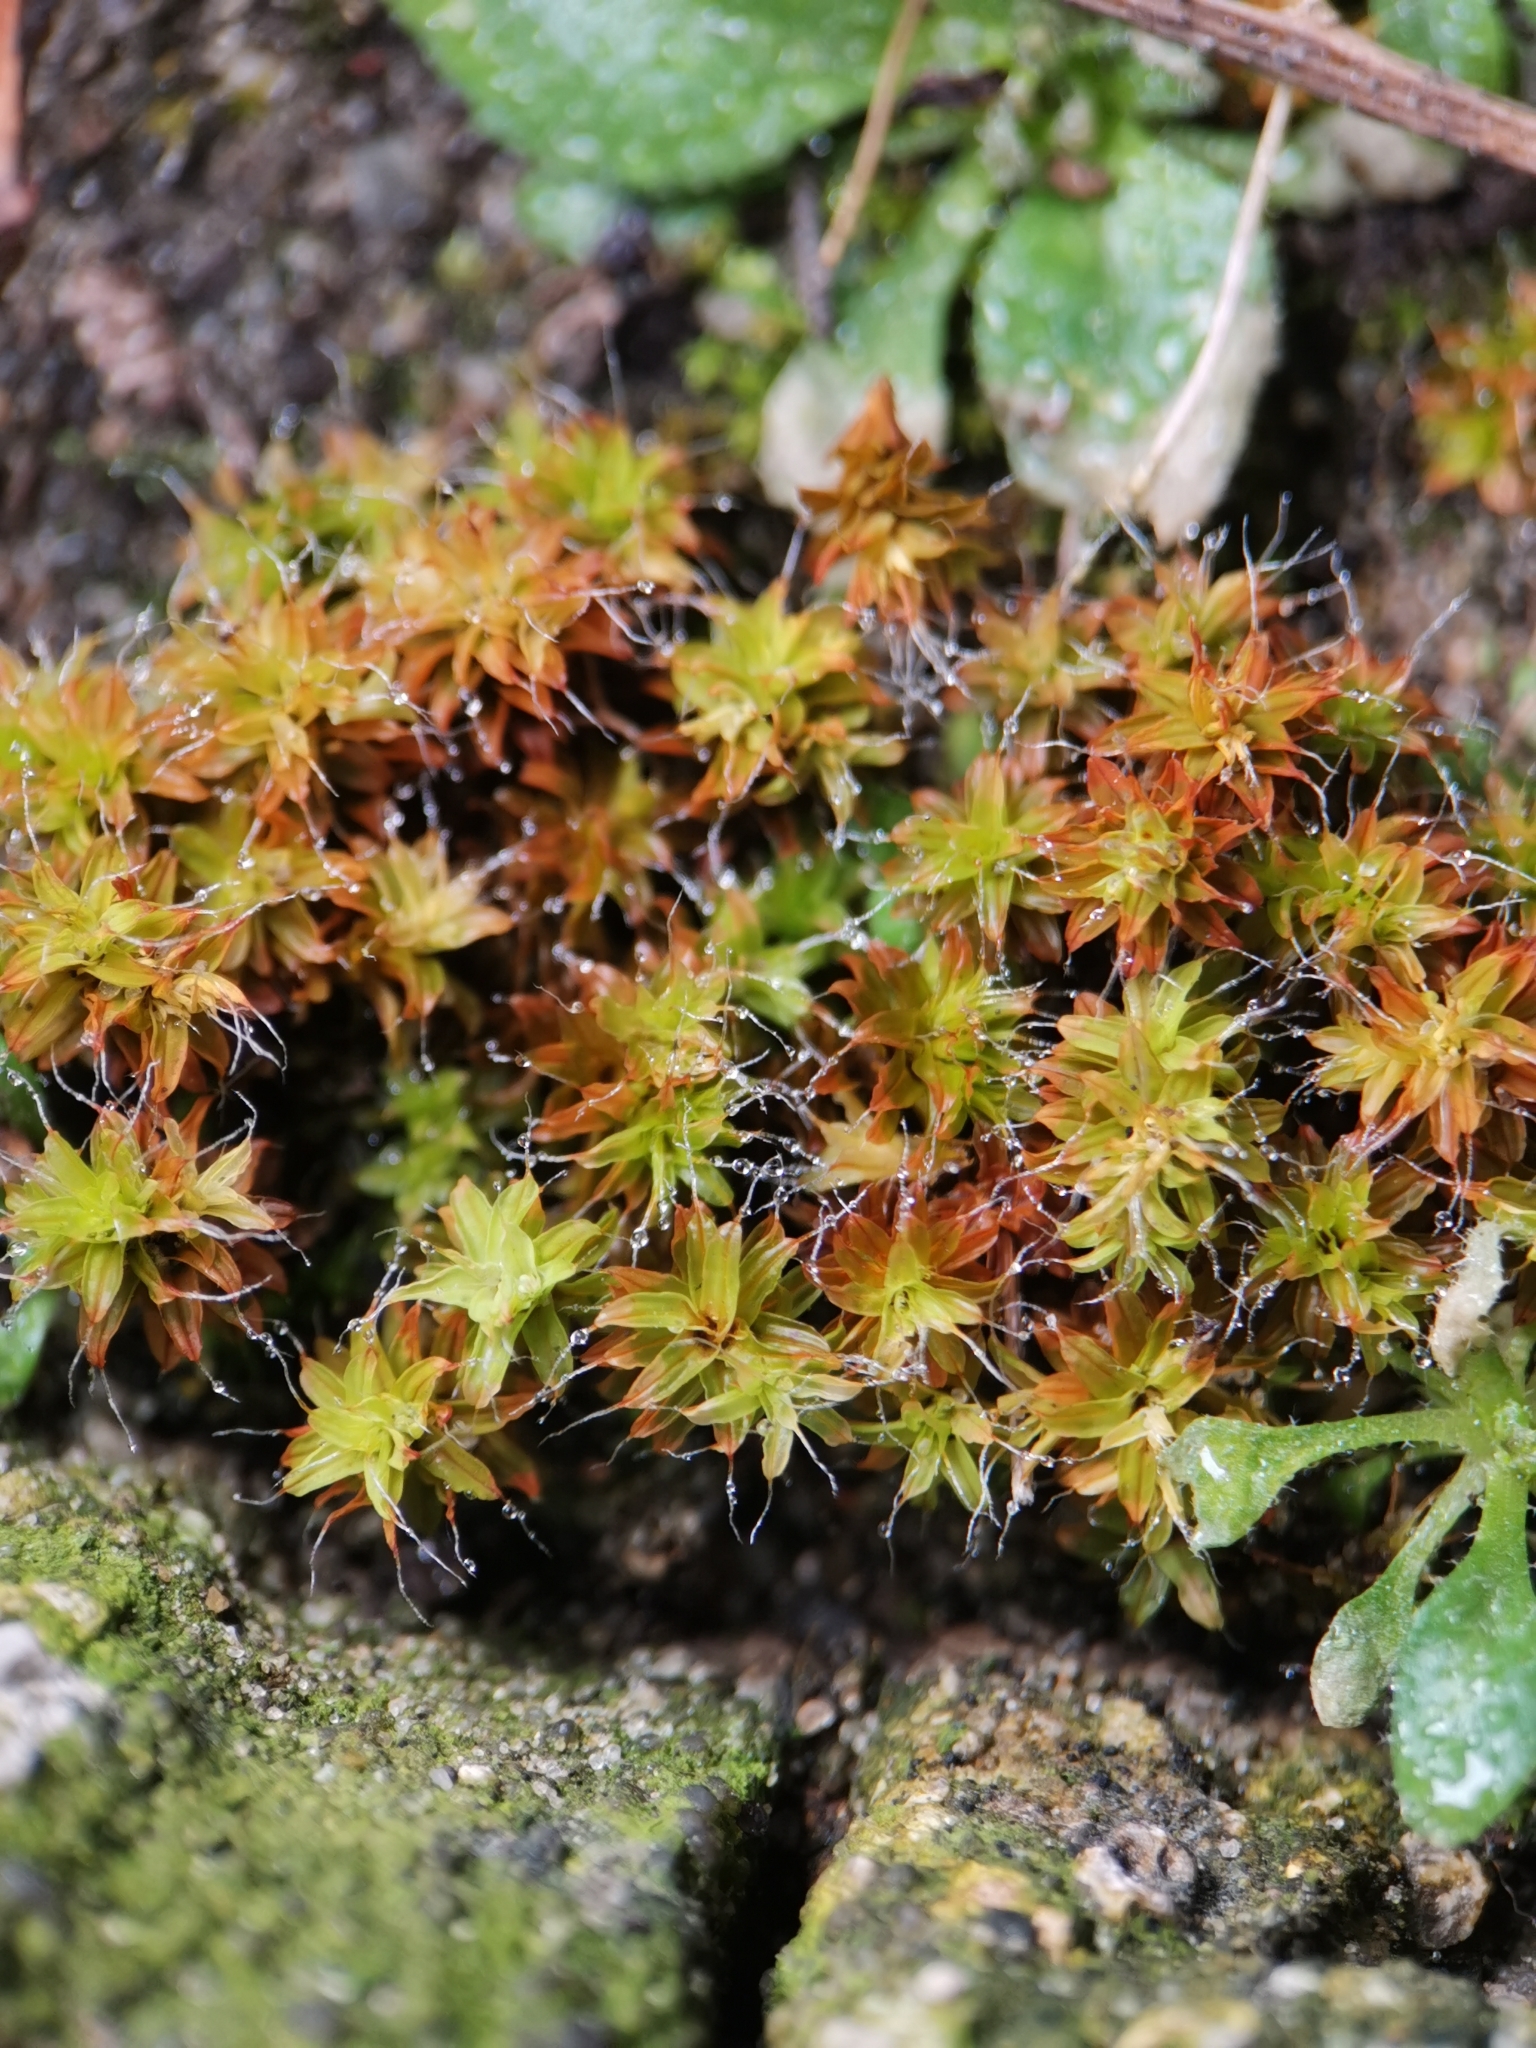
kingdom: Plantae
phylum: Bryophyta
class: Bryopsida
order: Pottiales
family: Pottiaceae
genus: Syntrichia
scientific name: Syntrichia ruralis
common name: Sidewalk screw moss
